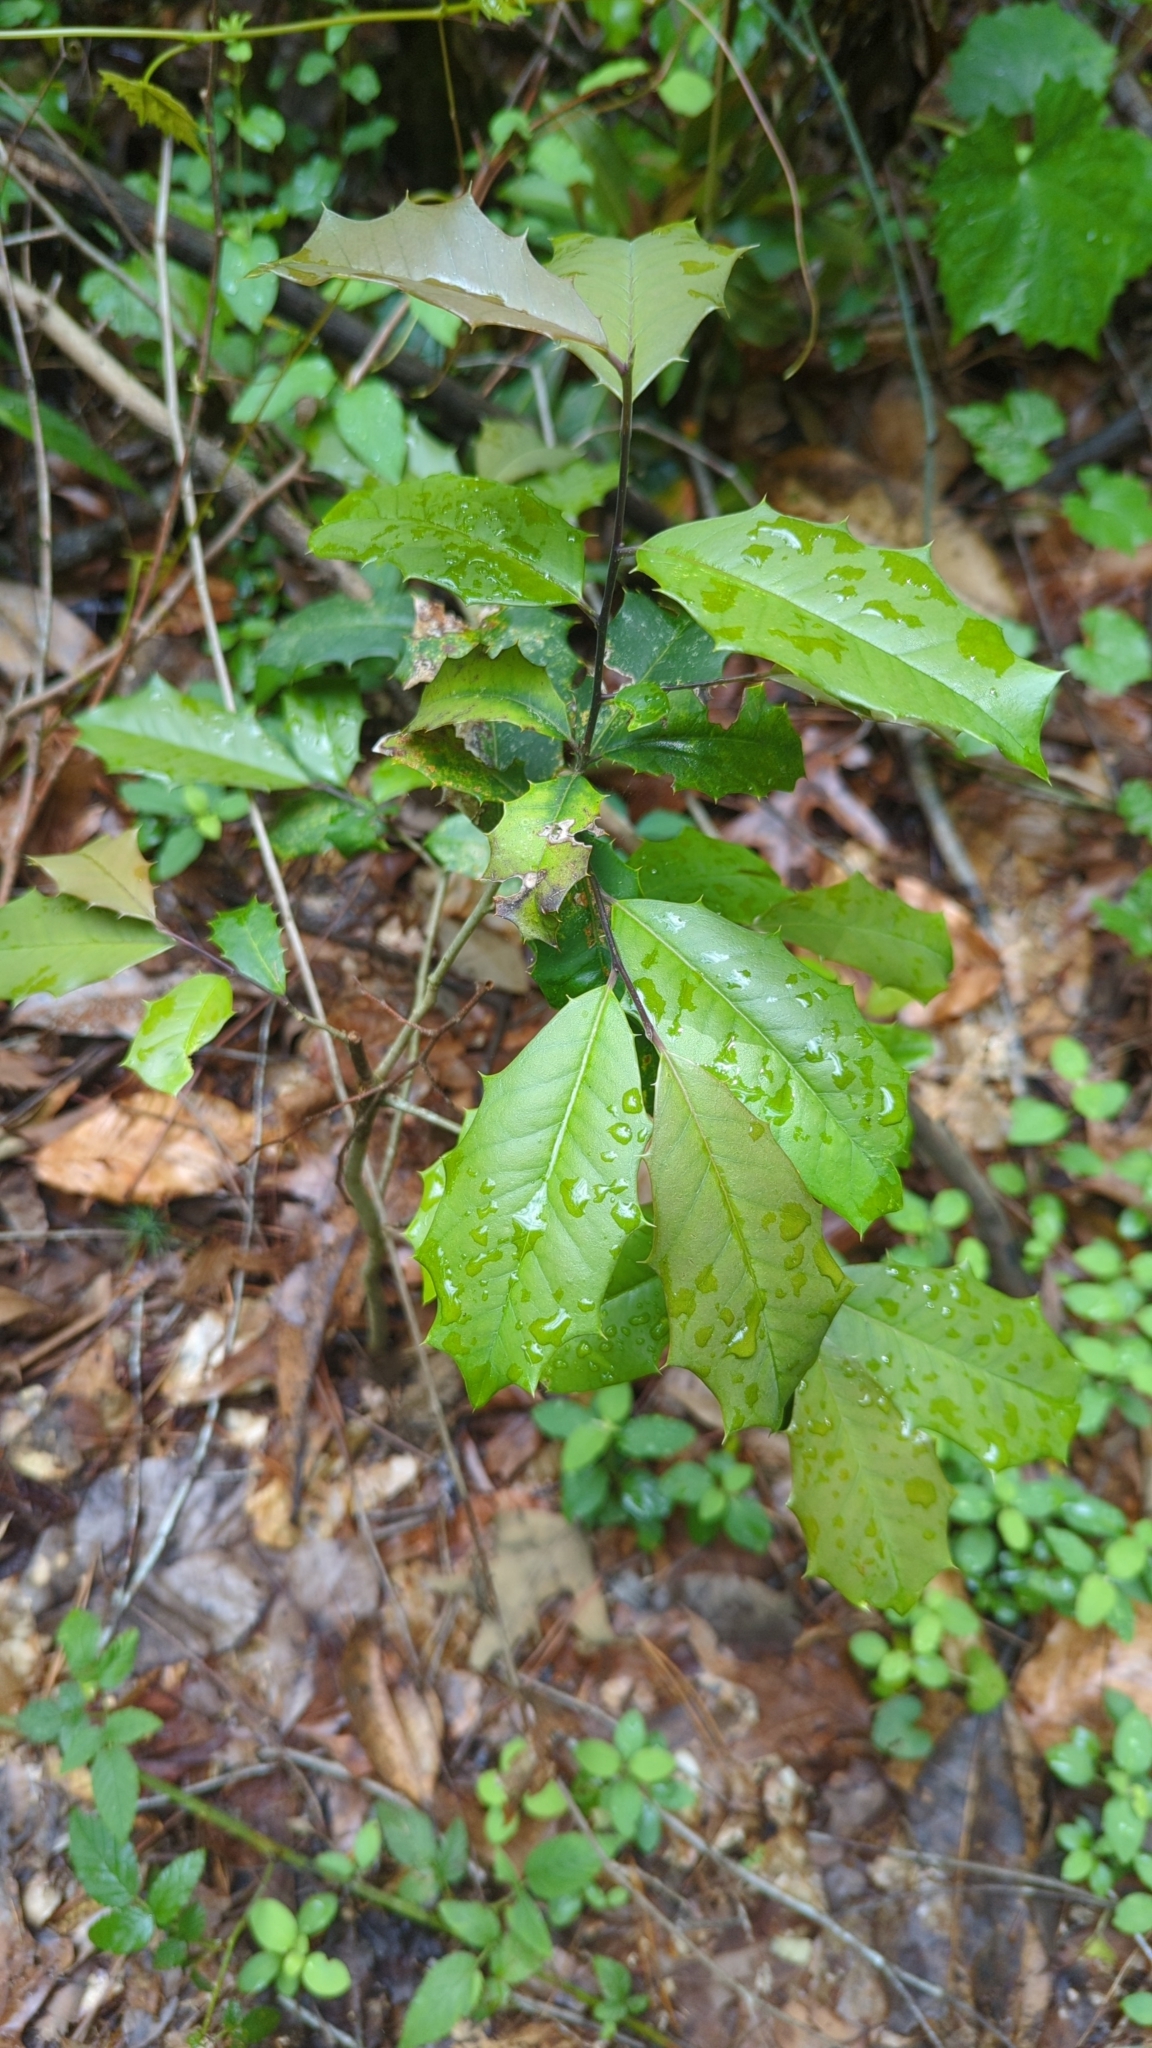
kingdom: Plantae
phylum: Tracheophyta
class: Magnoliopsida
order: Aquifoliales
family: Aquifoliaceae
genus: Ilex
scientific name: Ilex opaca
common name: American holly
